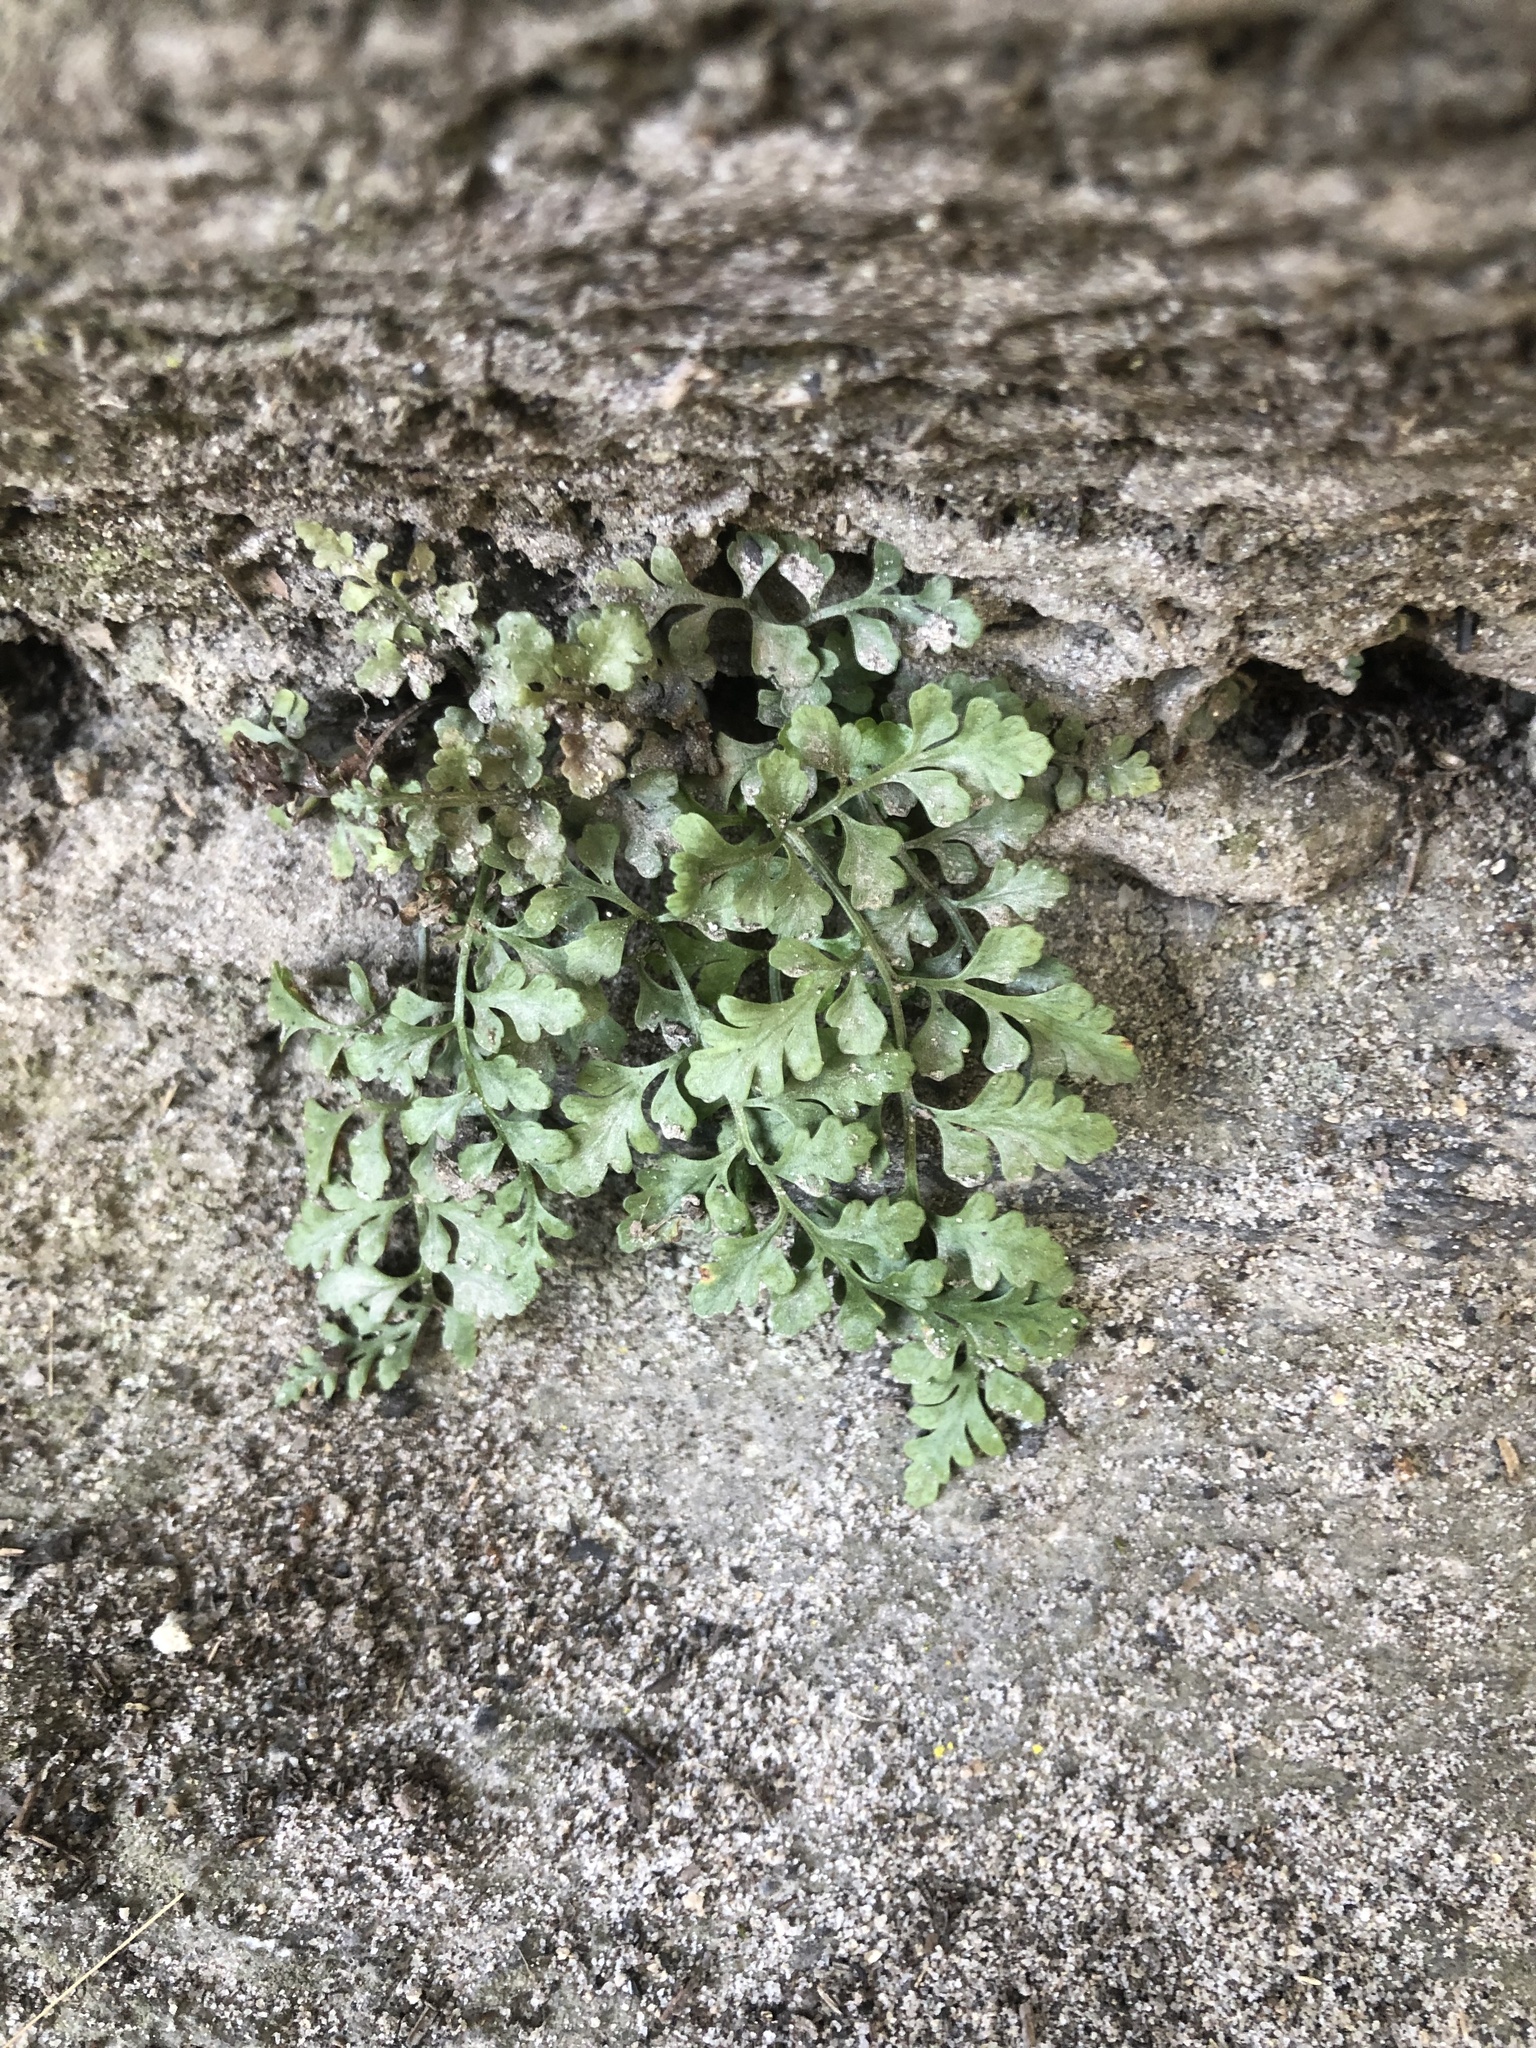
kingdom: Plantae
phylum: Tracheophyta
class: Polypodiopsida
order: Polypodiales
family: Aspleniaceae
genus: Asplenium
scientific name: Asplenium montanum
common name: Mountain spleenwort
